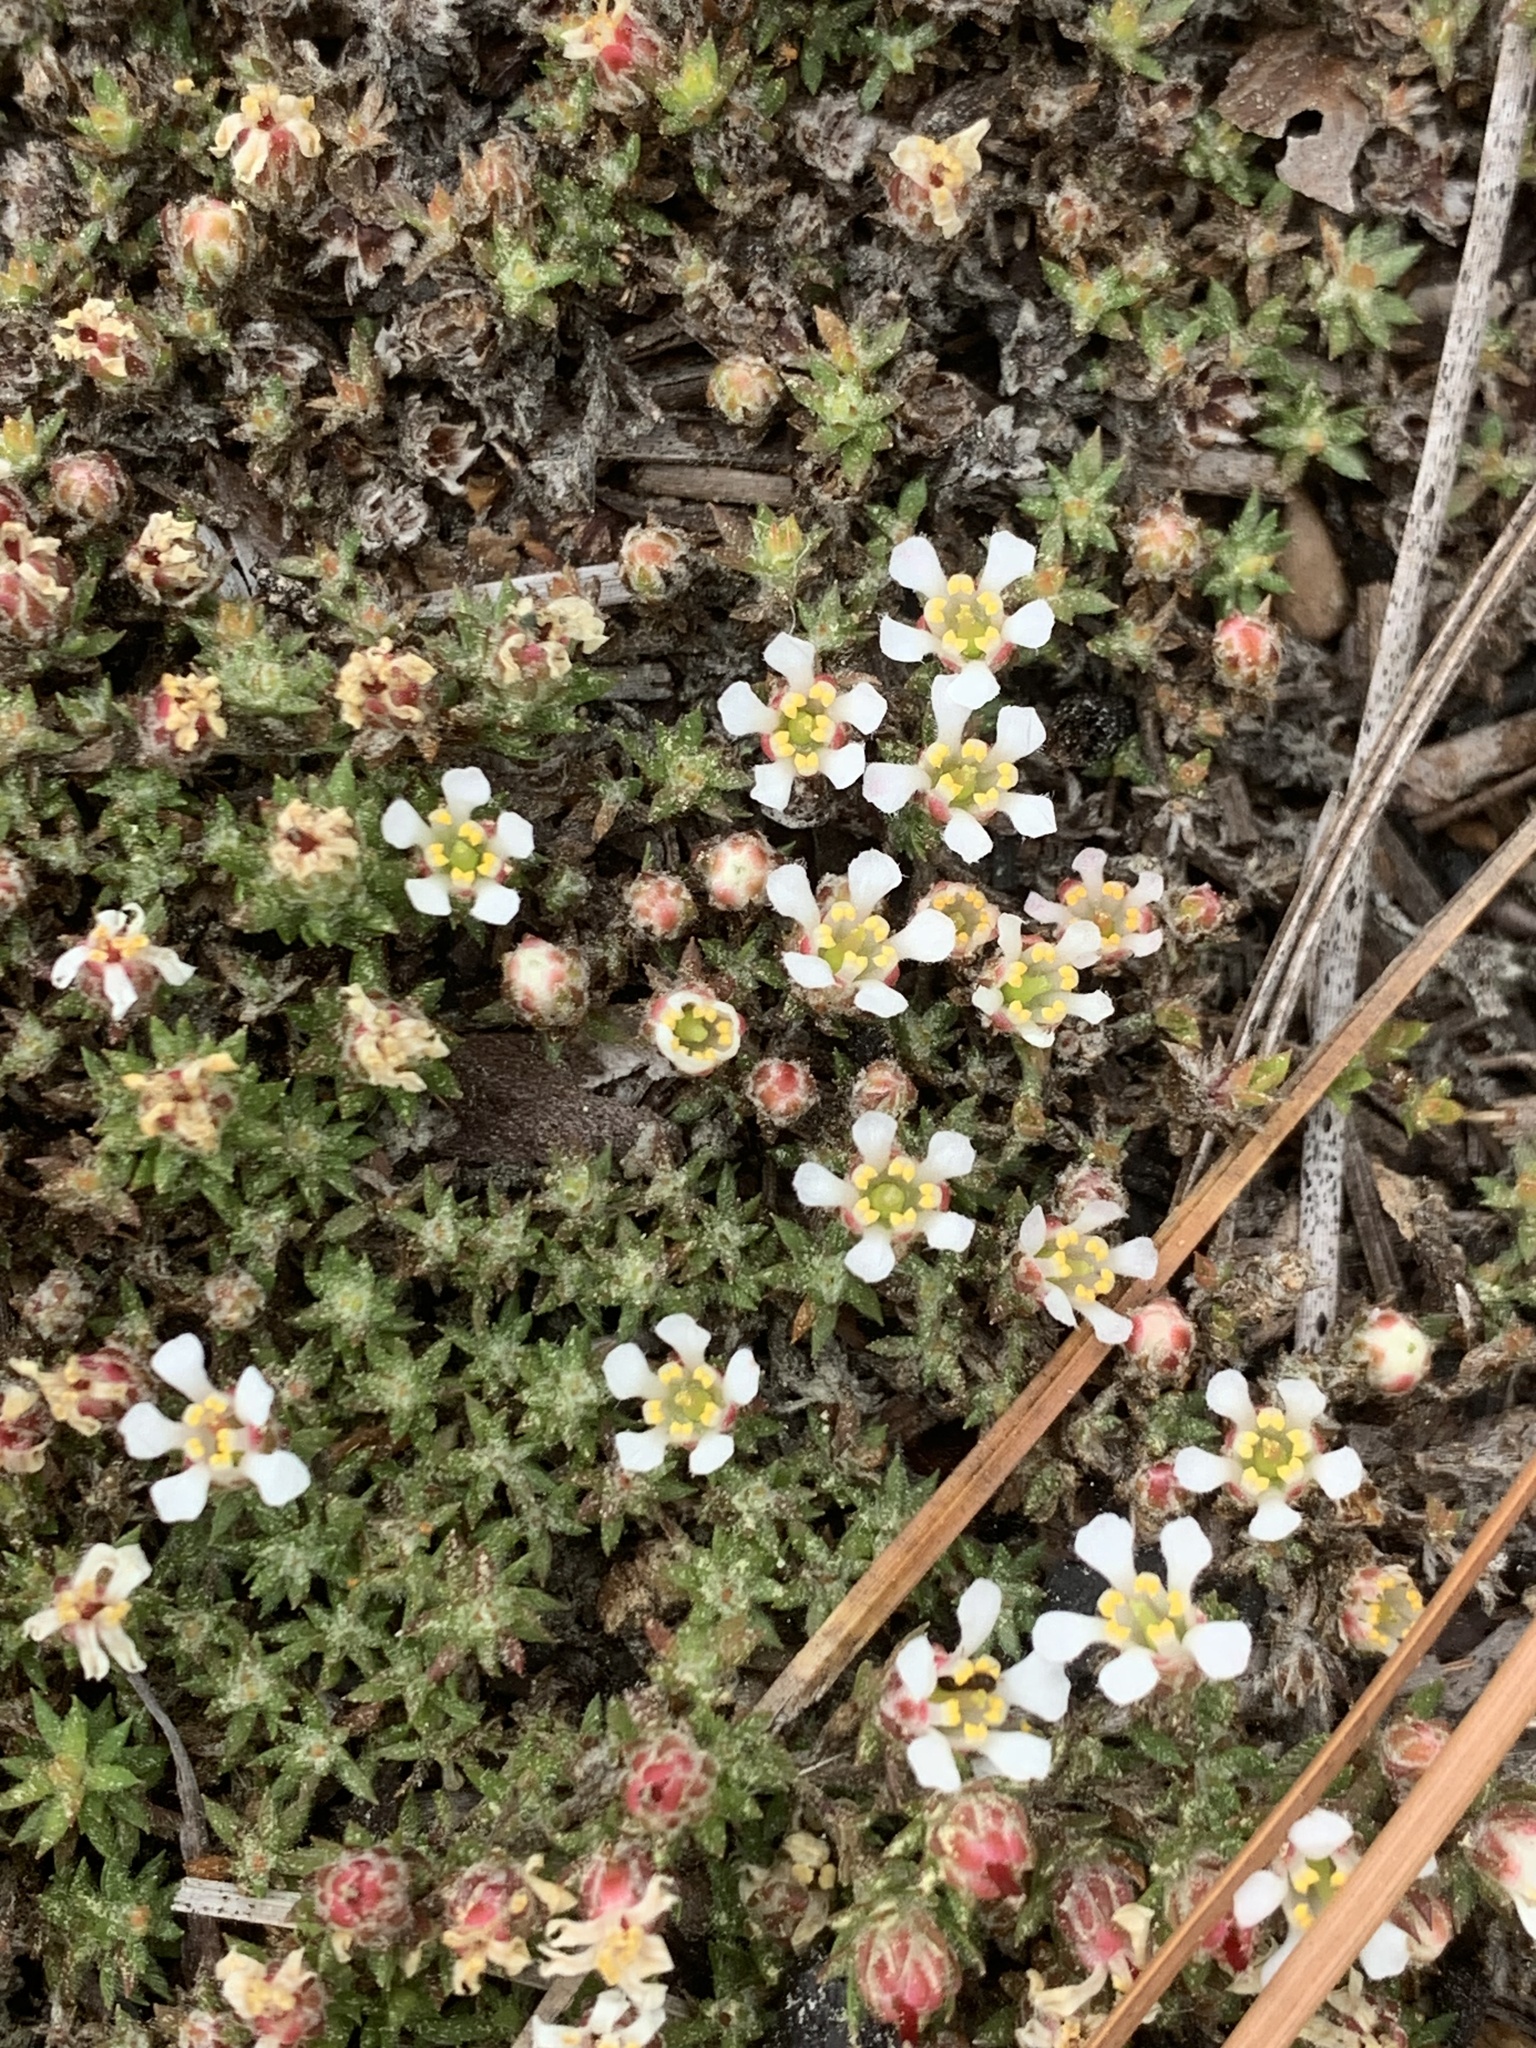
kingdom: Plantae
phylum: Tracheophyta
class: Magnoliopsida
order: Ericales
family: Diapensiaceae
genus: Pyxidanthera
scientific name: Pyxidanthera brevifolia
